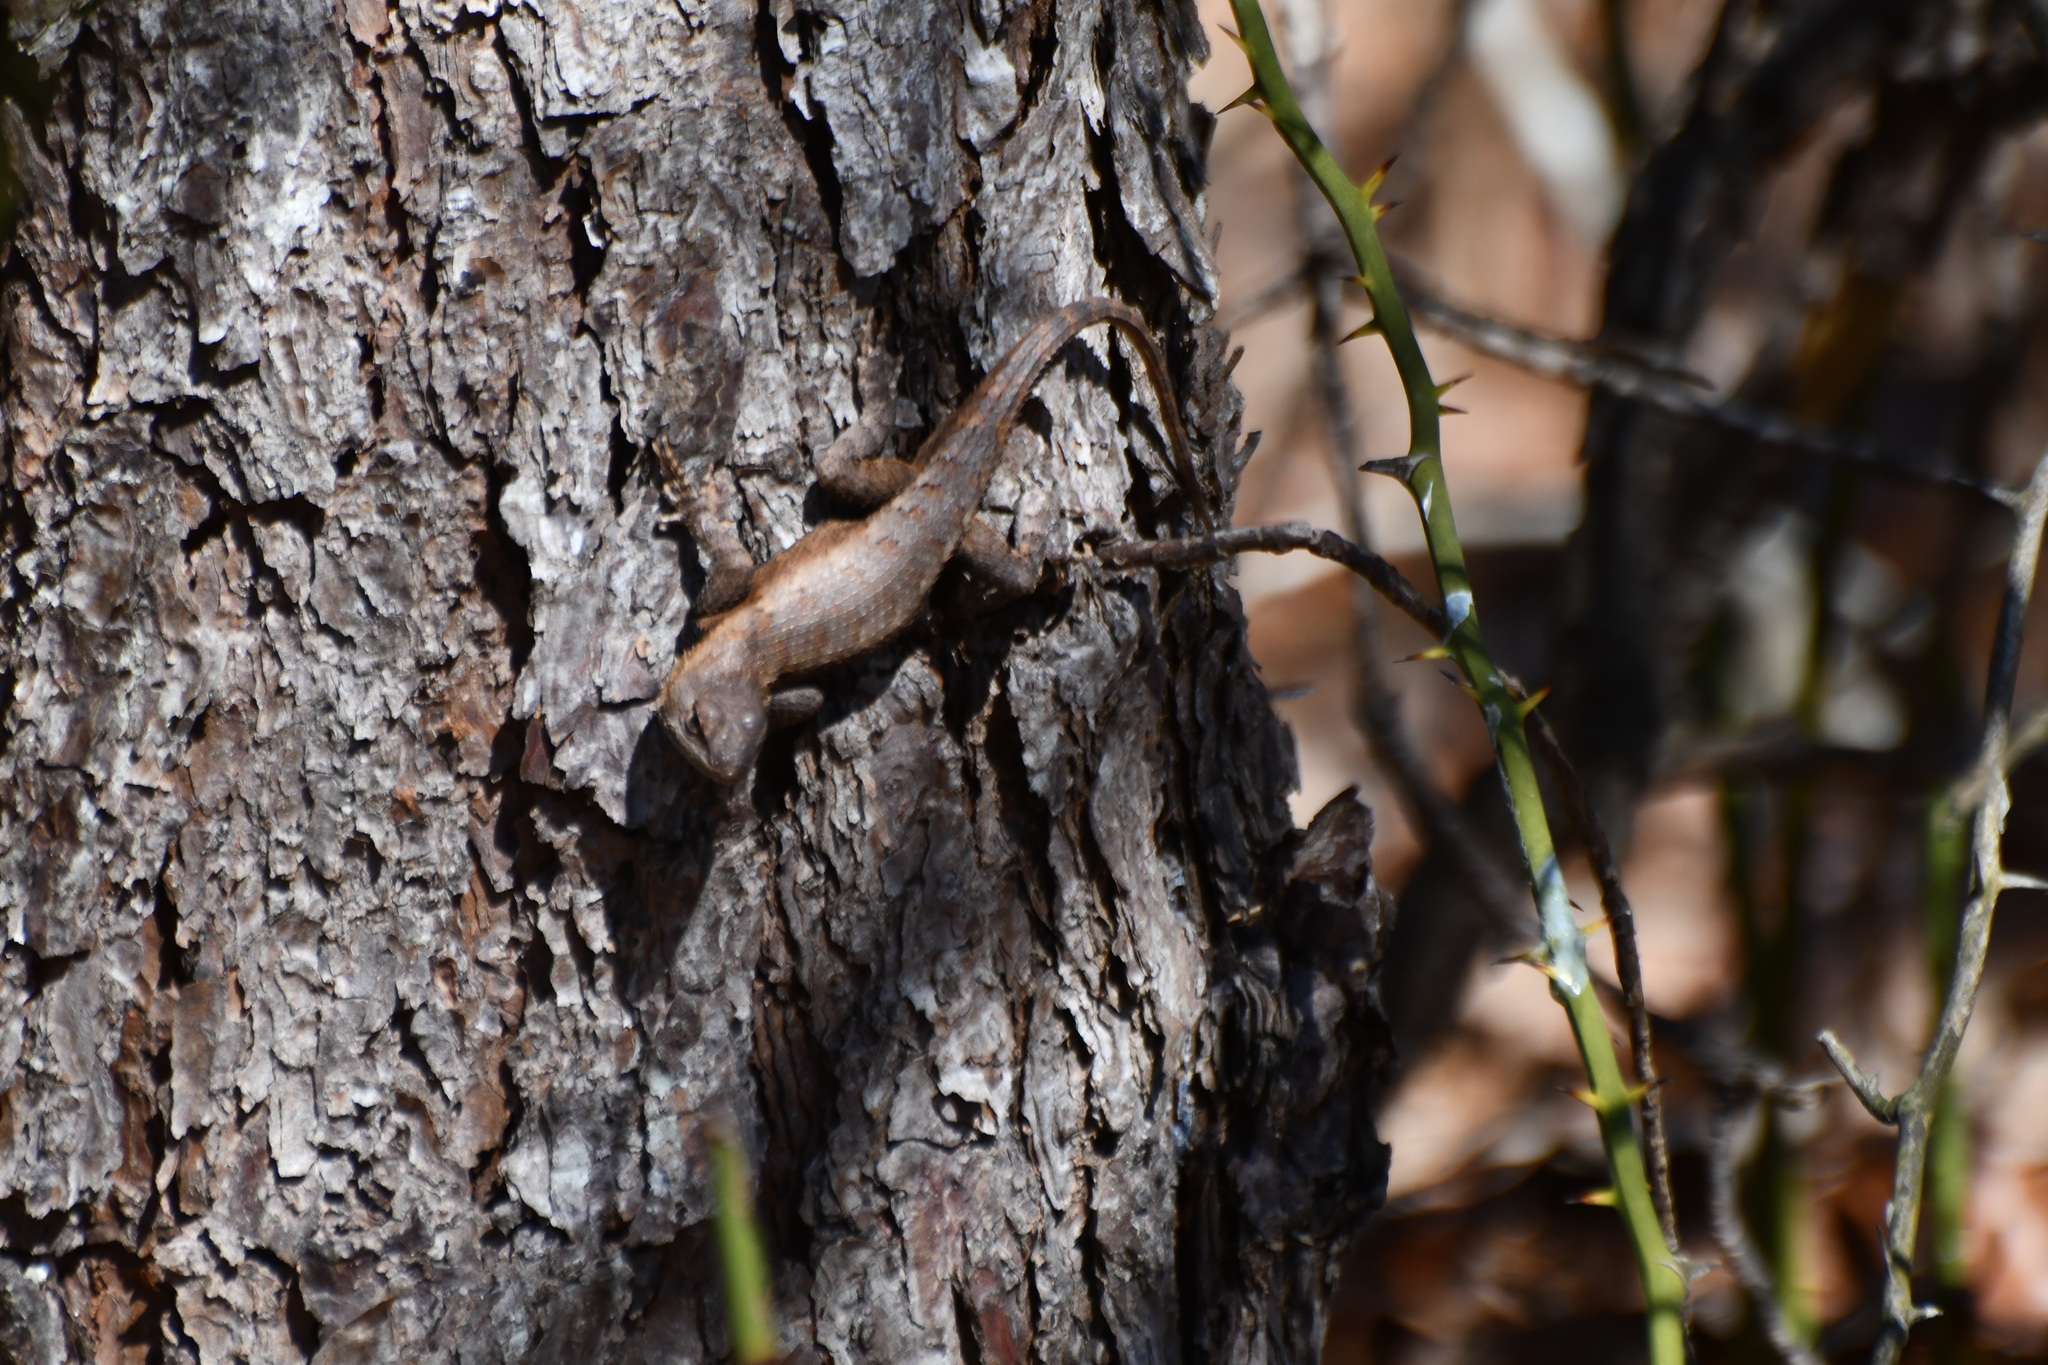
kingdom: Animalia
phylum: Chordata
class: Squamata
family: Phrynosomatidae
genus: Sceloporus
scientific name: Sceloporus undulatus
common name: Eastern fence lizard
